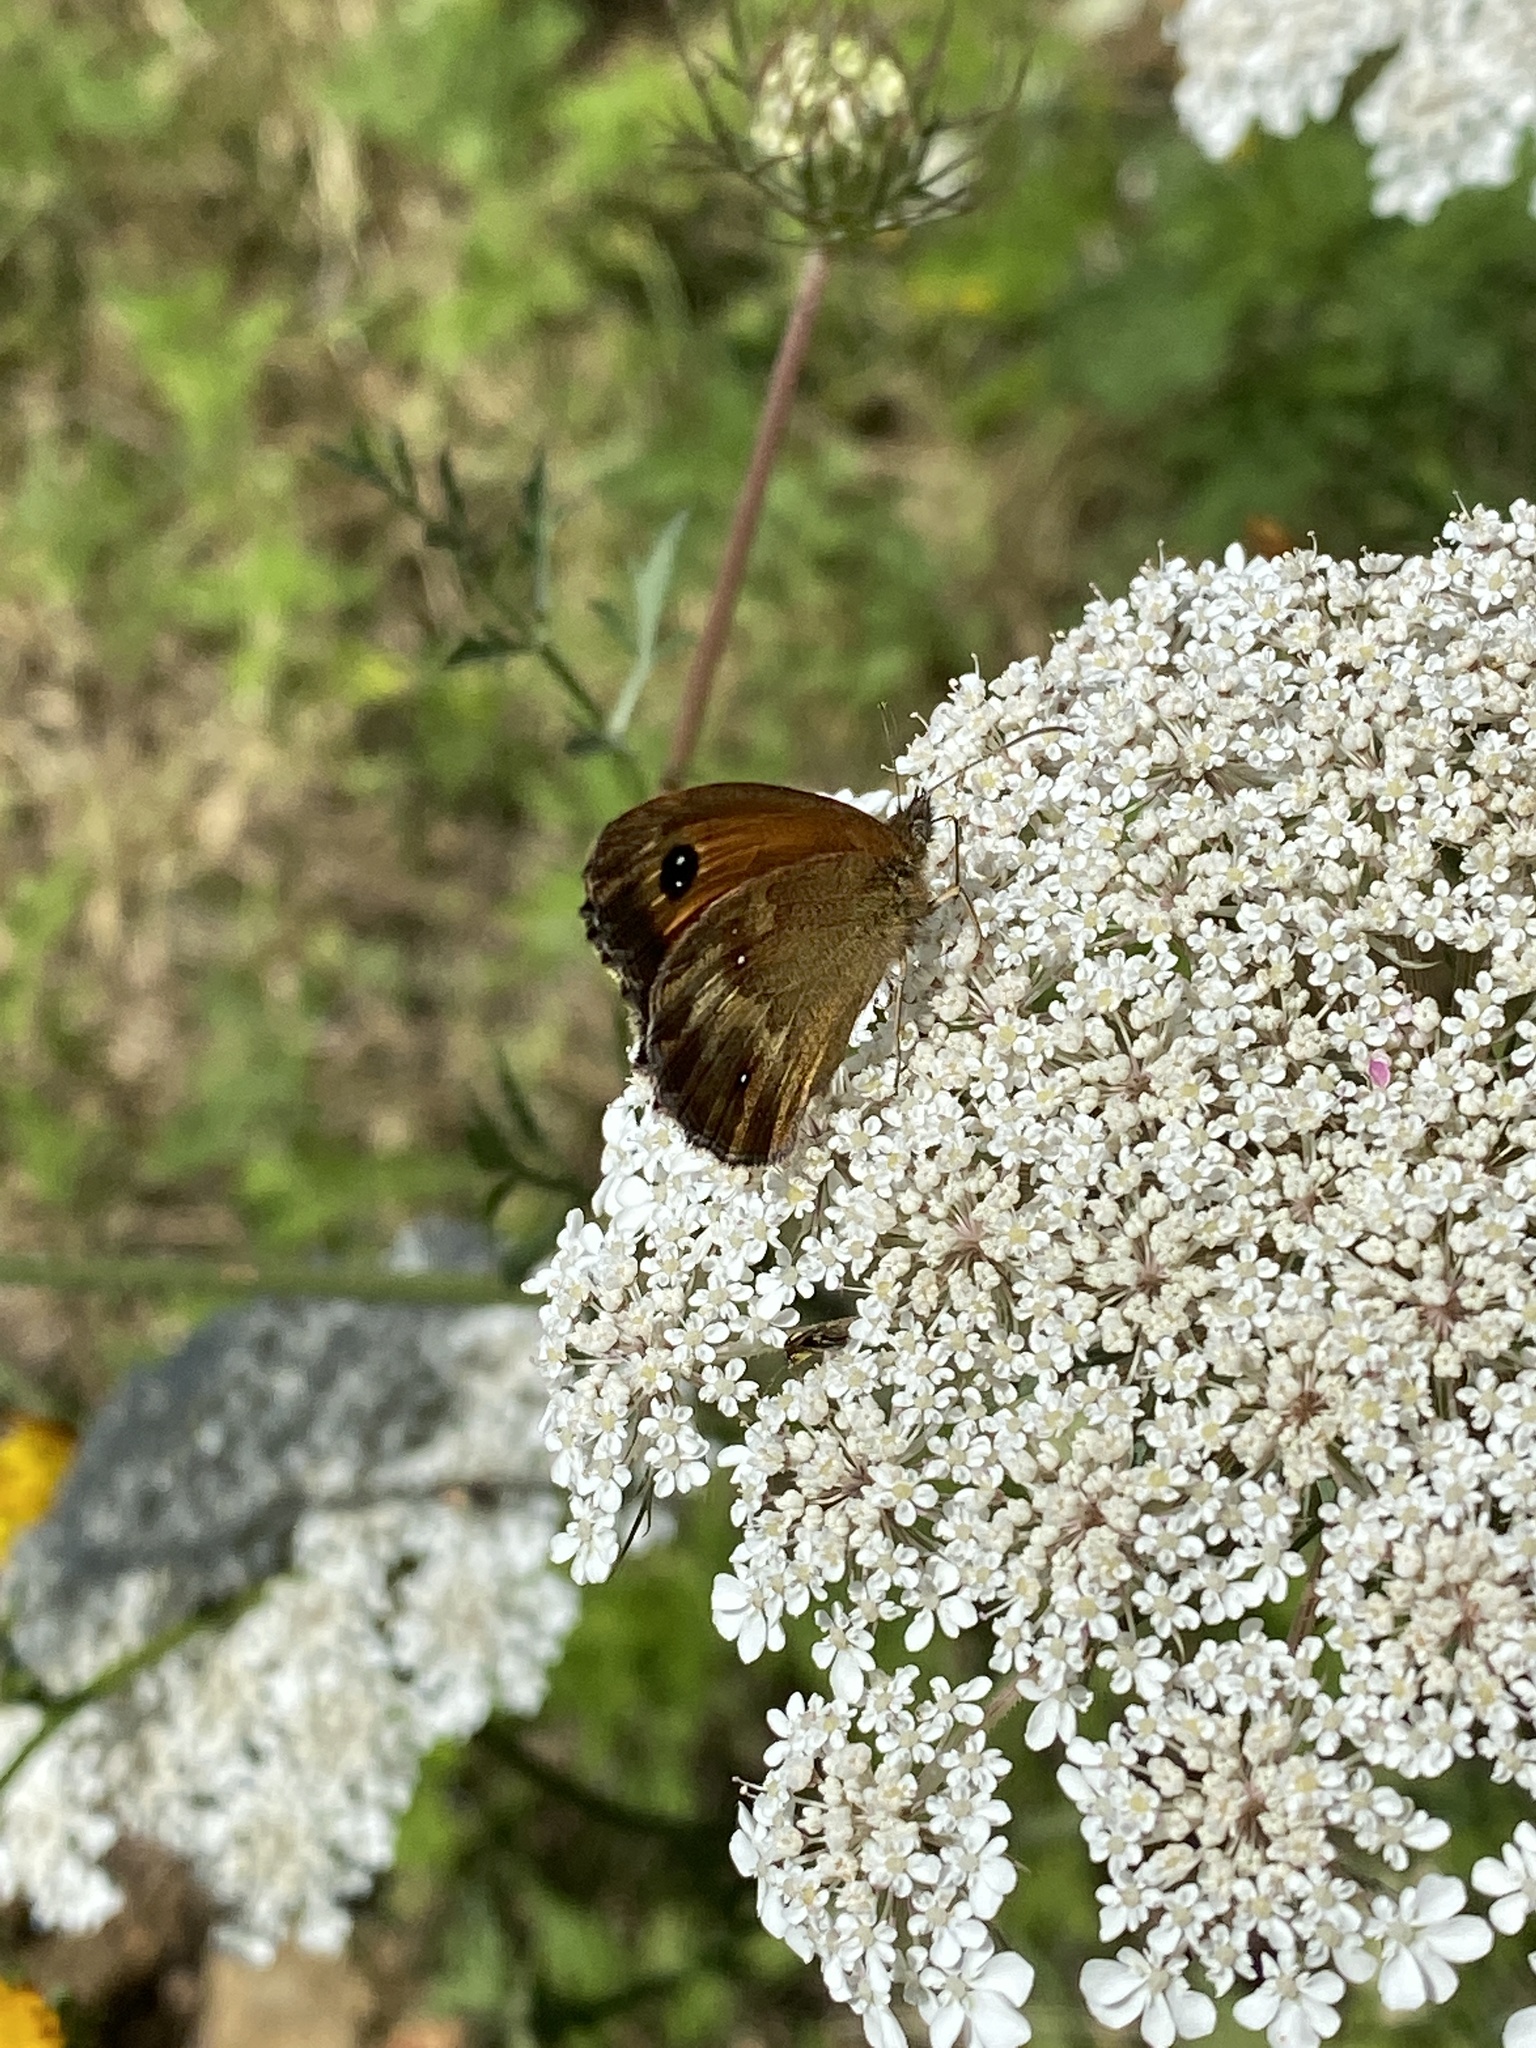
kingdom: Animalia
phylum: Arthropoda
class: Insecta
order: Lepidoptera
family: Nymphalidae
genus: Pyronia
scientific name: Pyronia tithonus
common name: Gatekeeper
